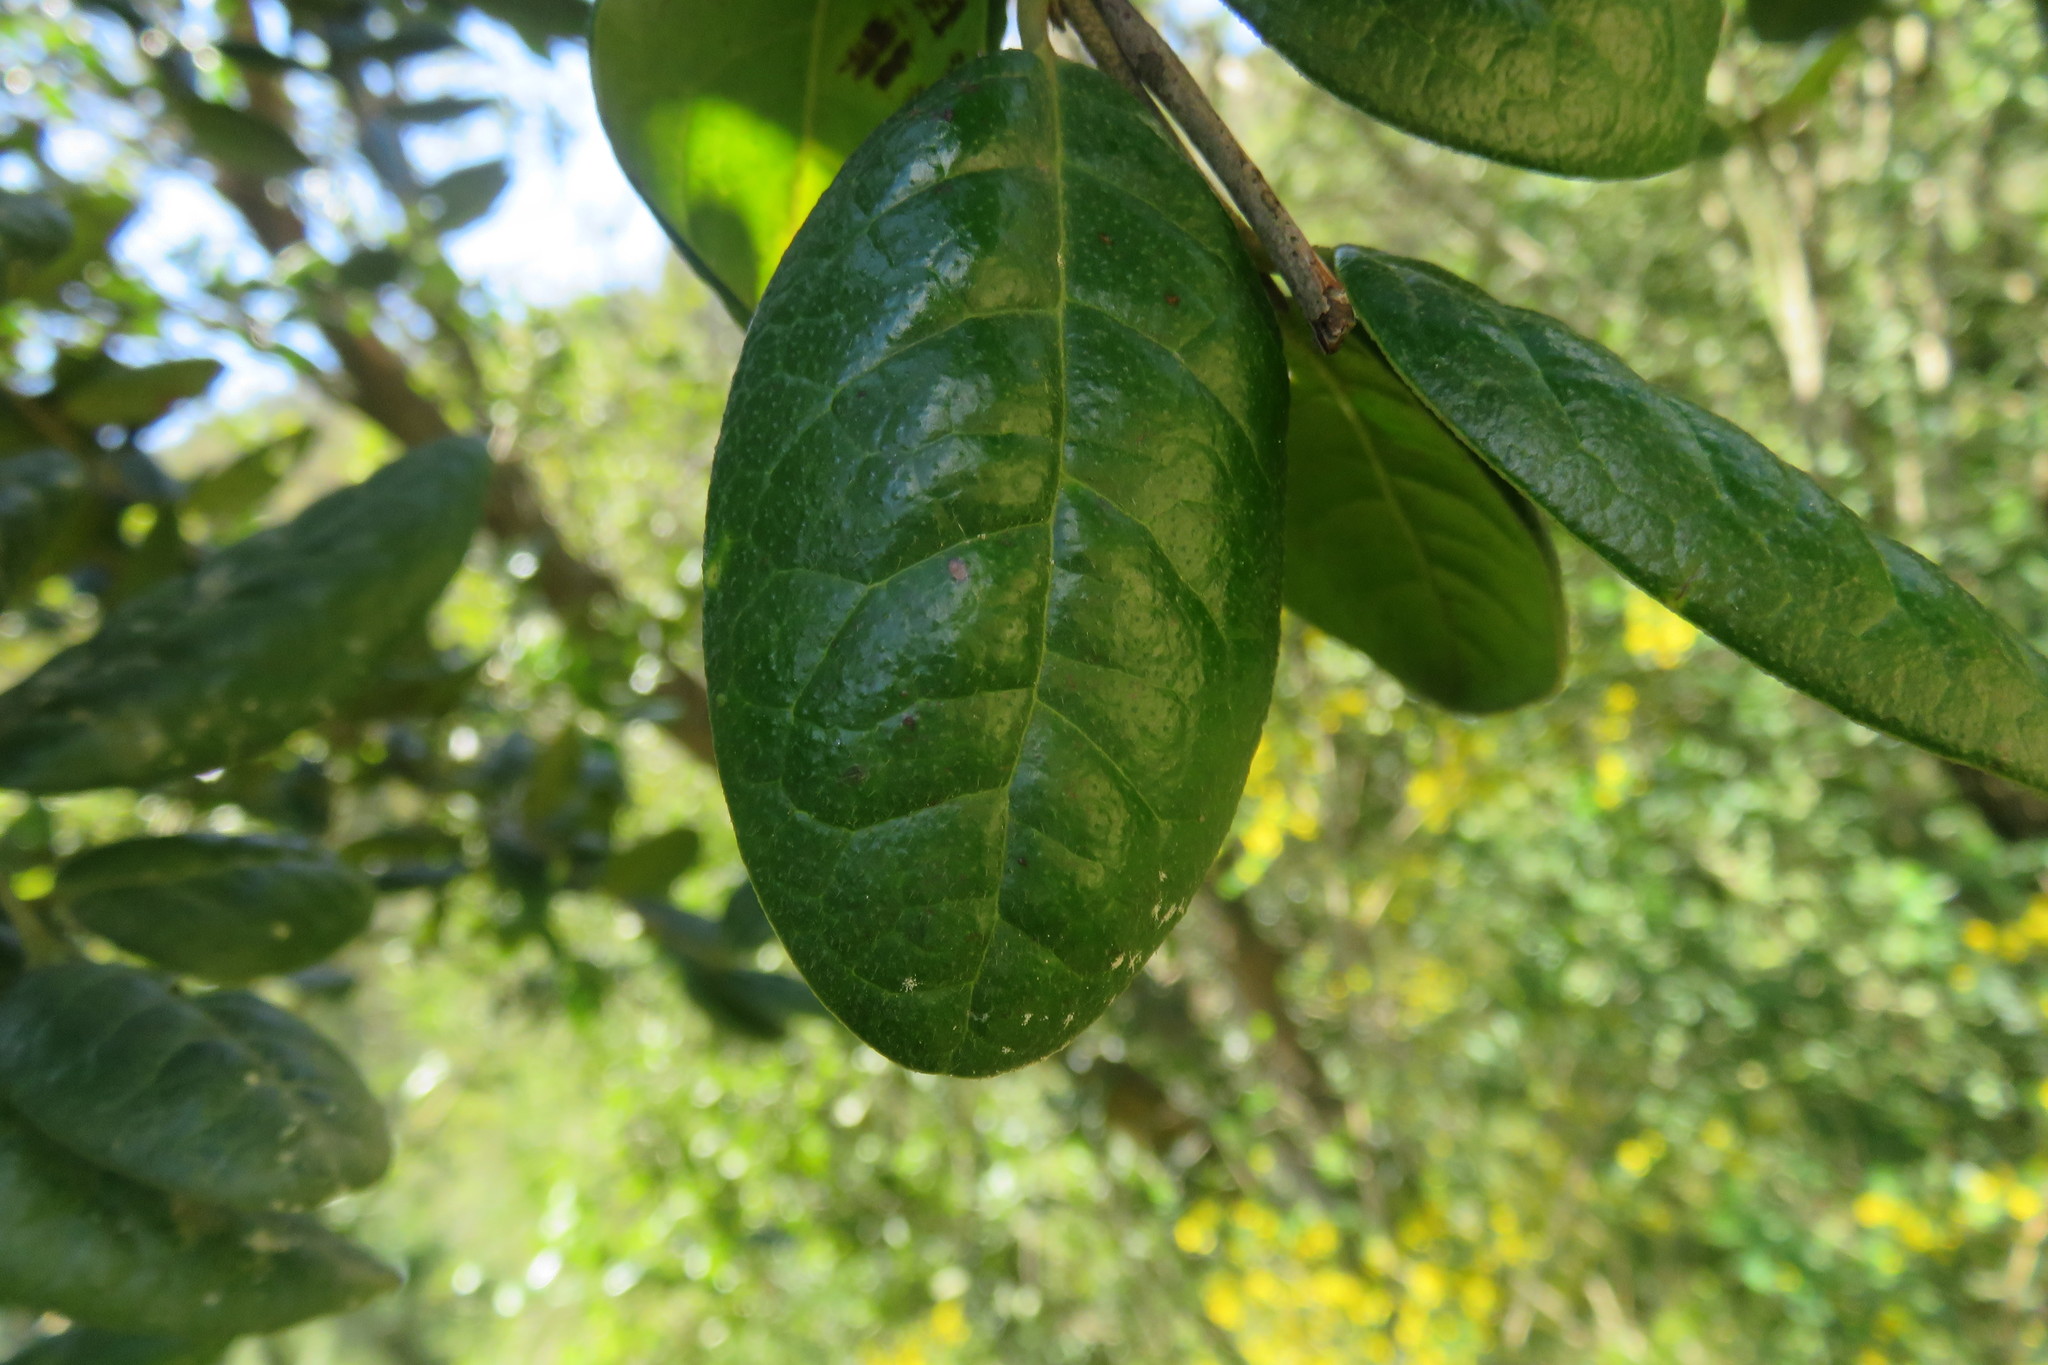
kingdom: Plantae
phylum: Tracheophyta
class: Magnoliopsida
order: Laurales
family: Monimiaceae
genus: Peumus
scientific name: Peumus boldus
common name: Boldo
